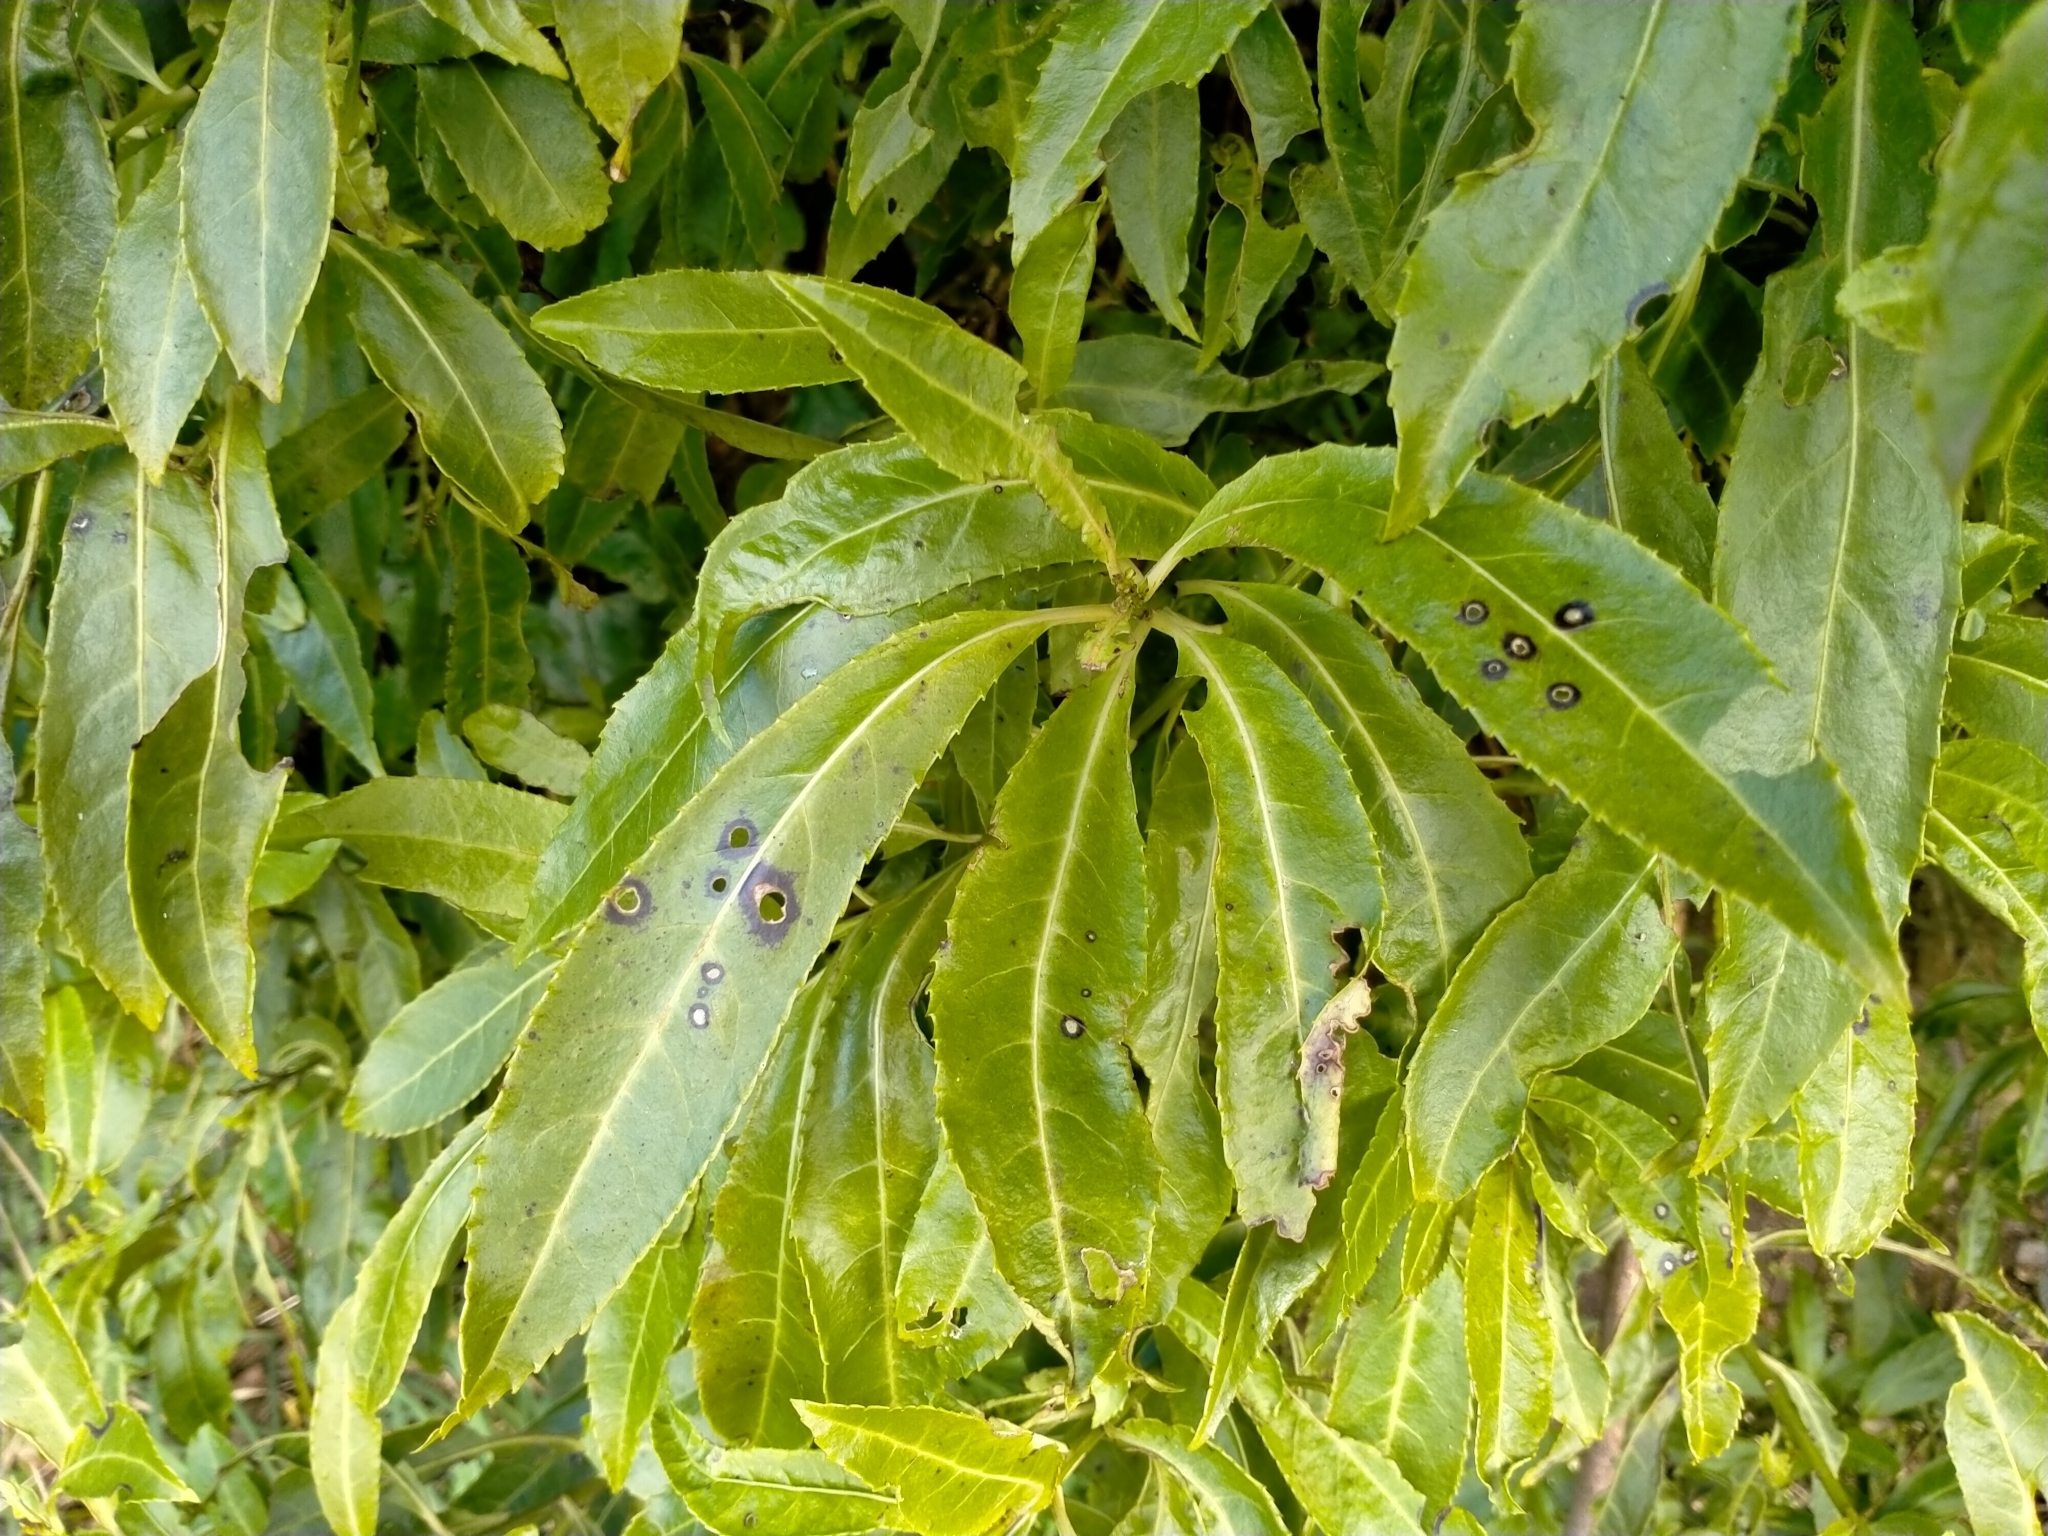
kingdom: Plantae
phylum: Tracheophyta
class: Magnoliopsida
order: Malpighiales
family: Violaceae
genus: Melicytus
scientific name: Melicytus lanceolatus
